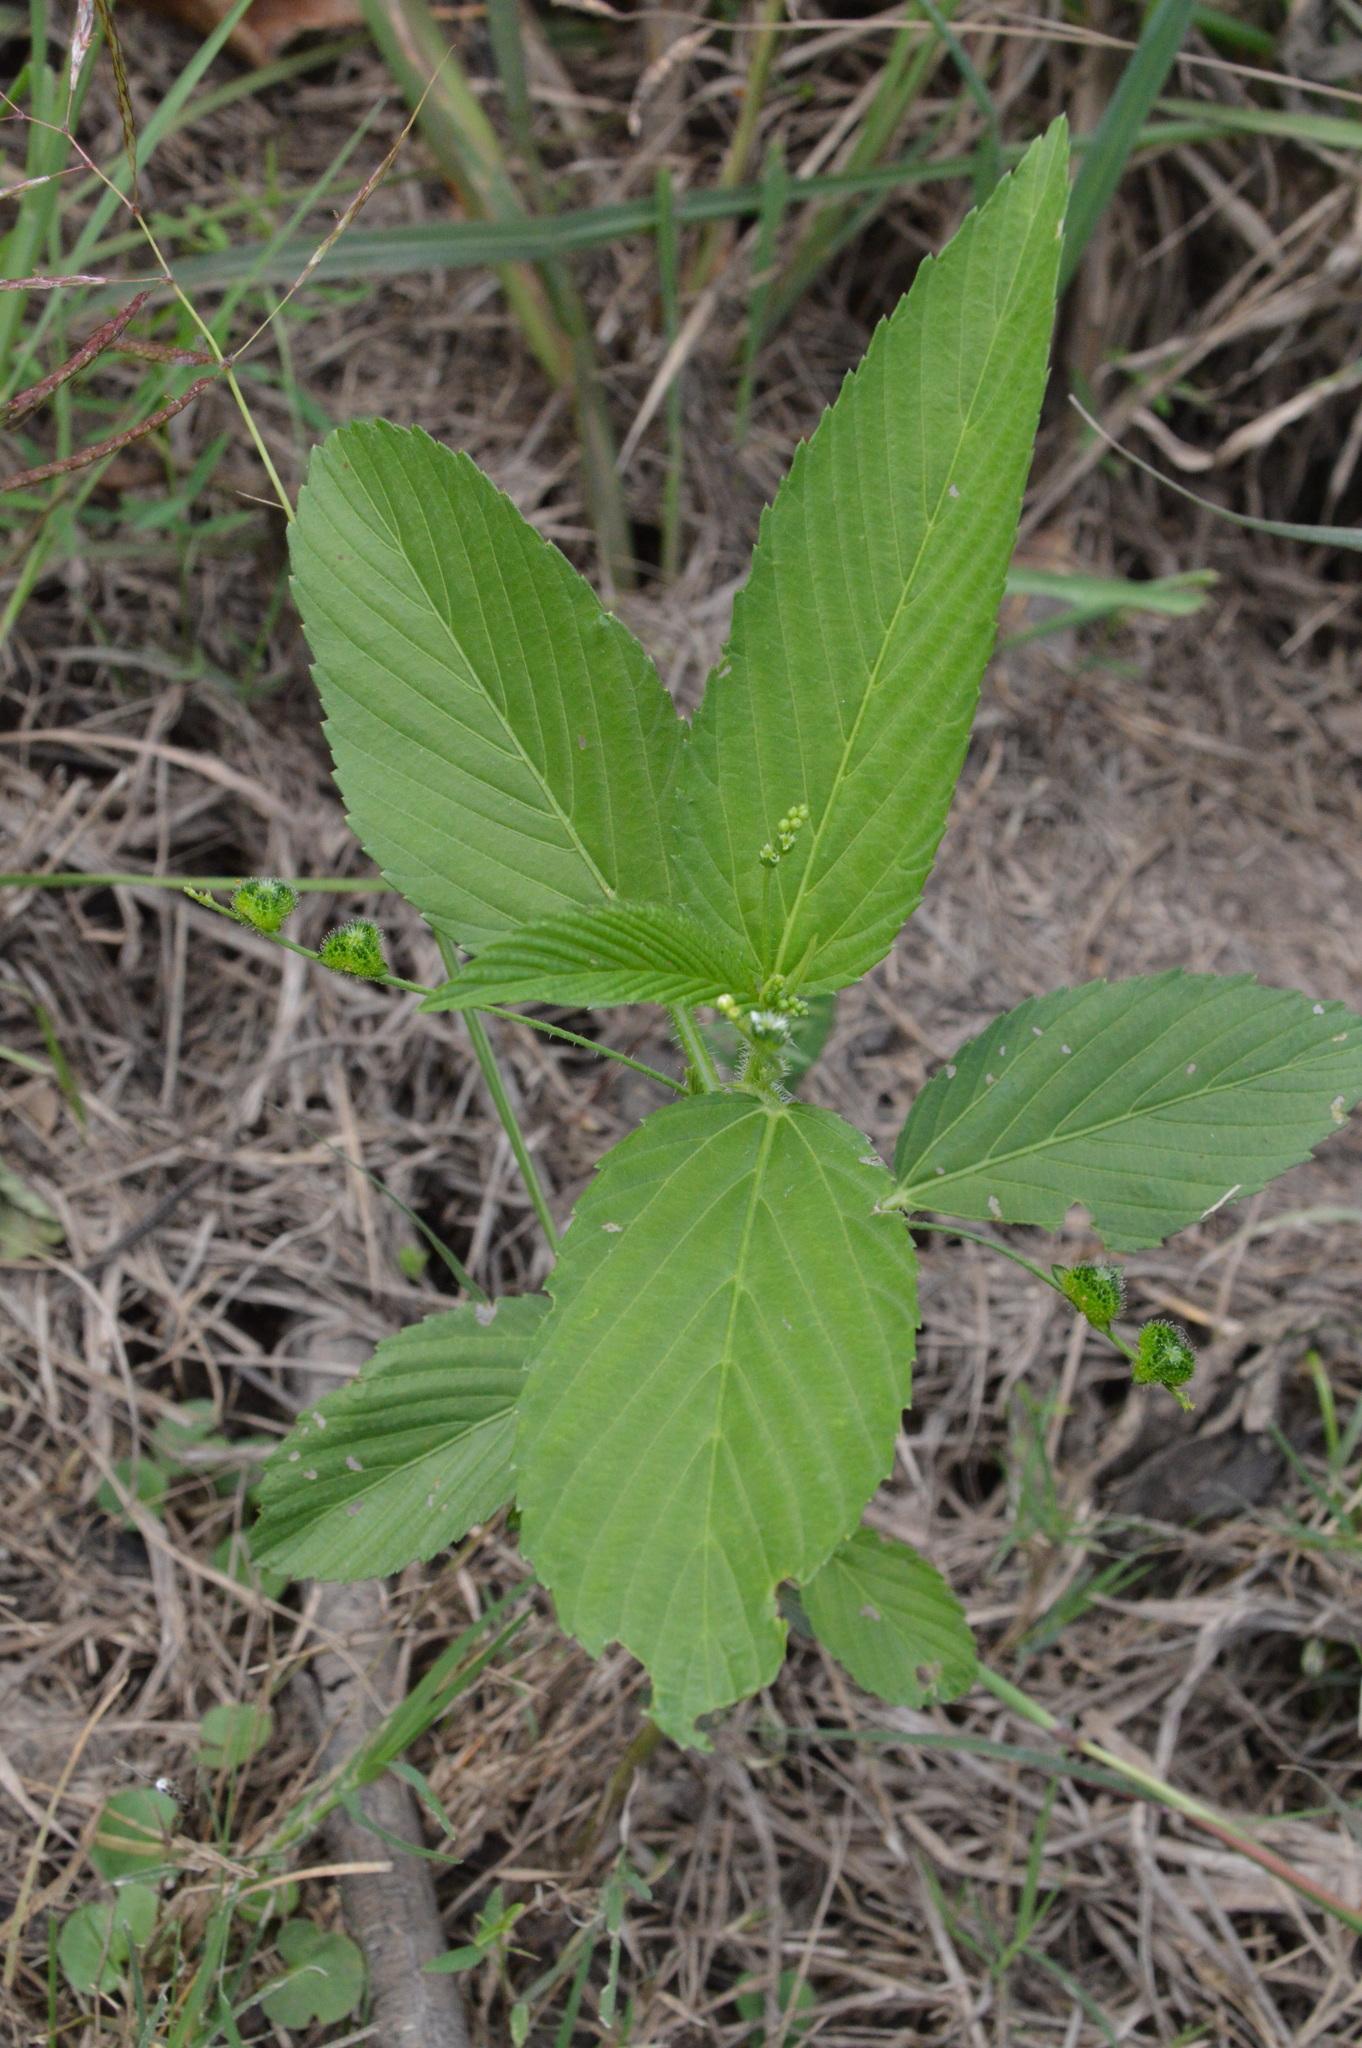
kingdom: Plantae
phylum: Tracheophyta
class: Magnoliopsida
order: Malpighiales
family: Euphorbiaceae
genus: Caperonia
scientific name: Caperonia palustris
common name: Sacatrapo
